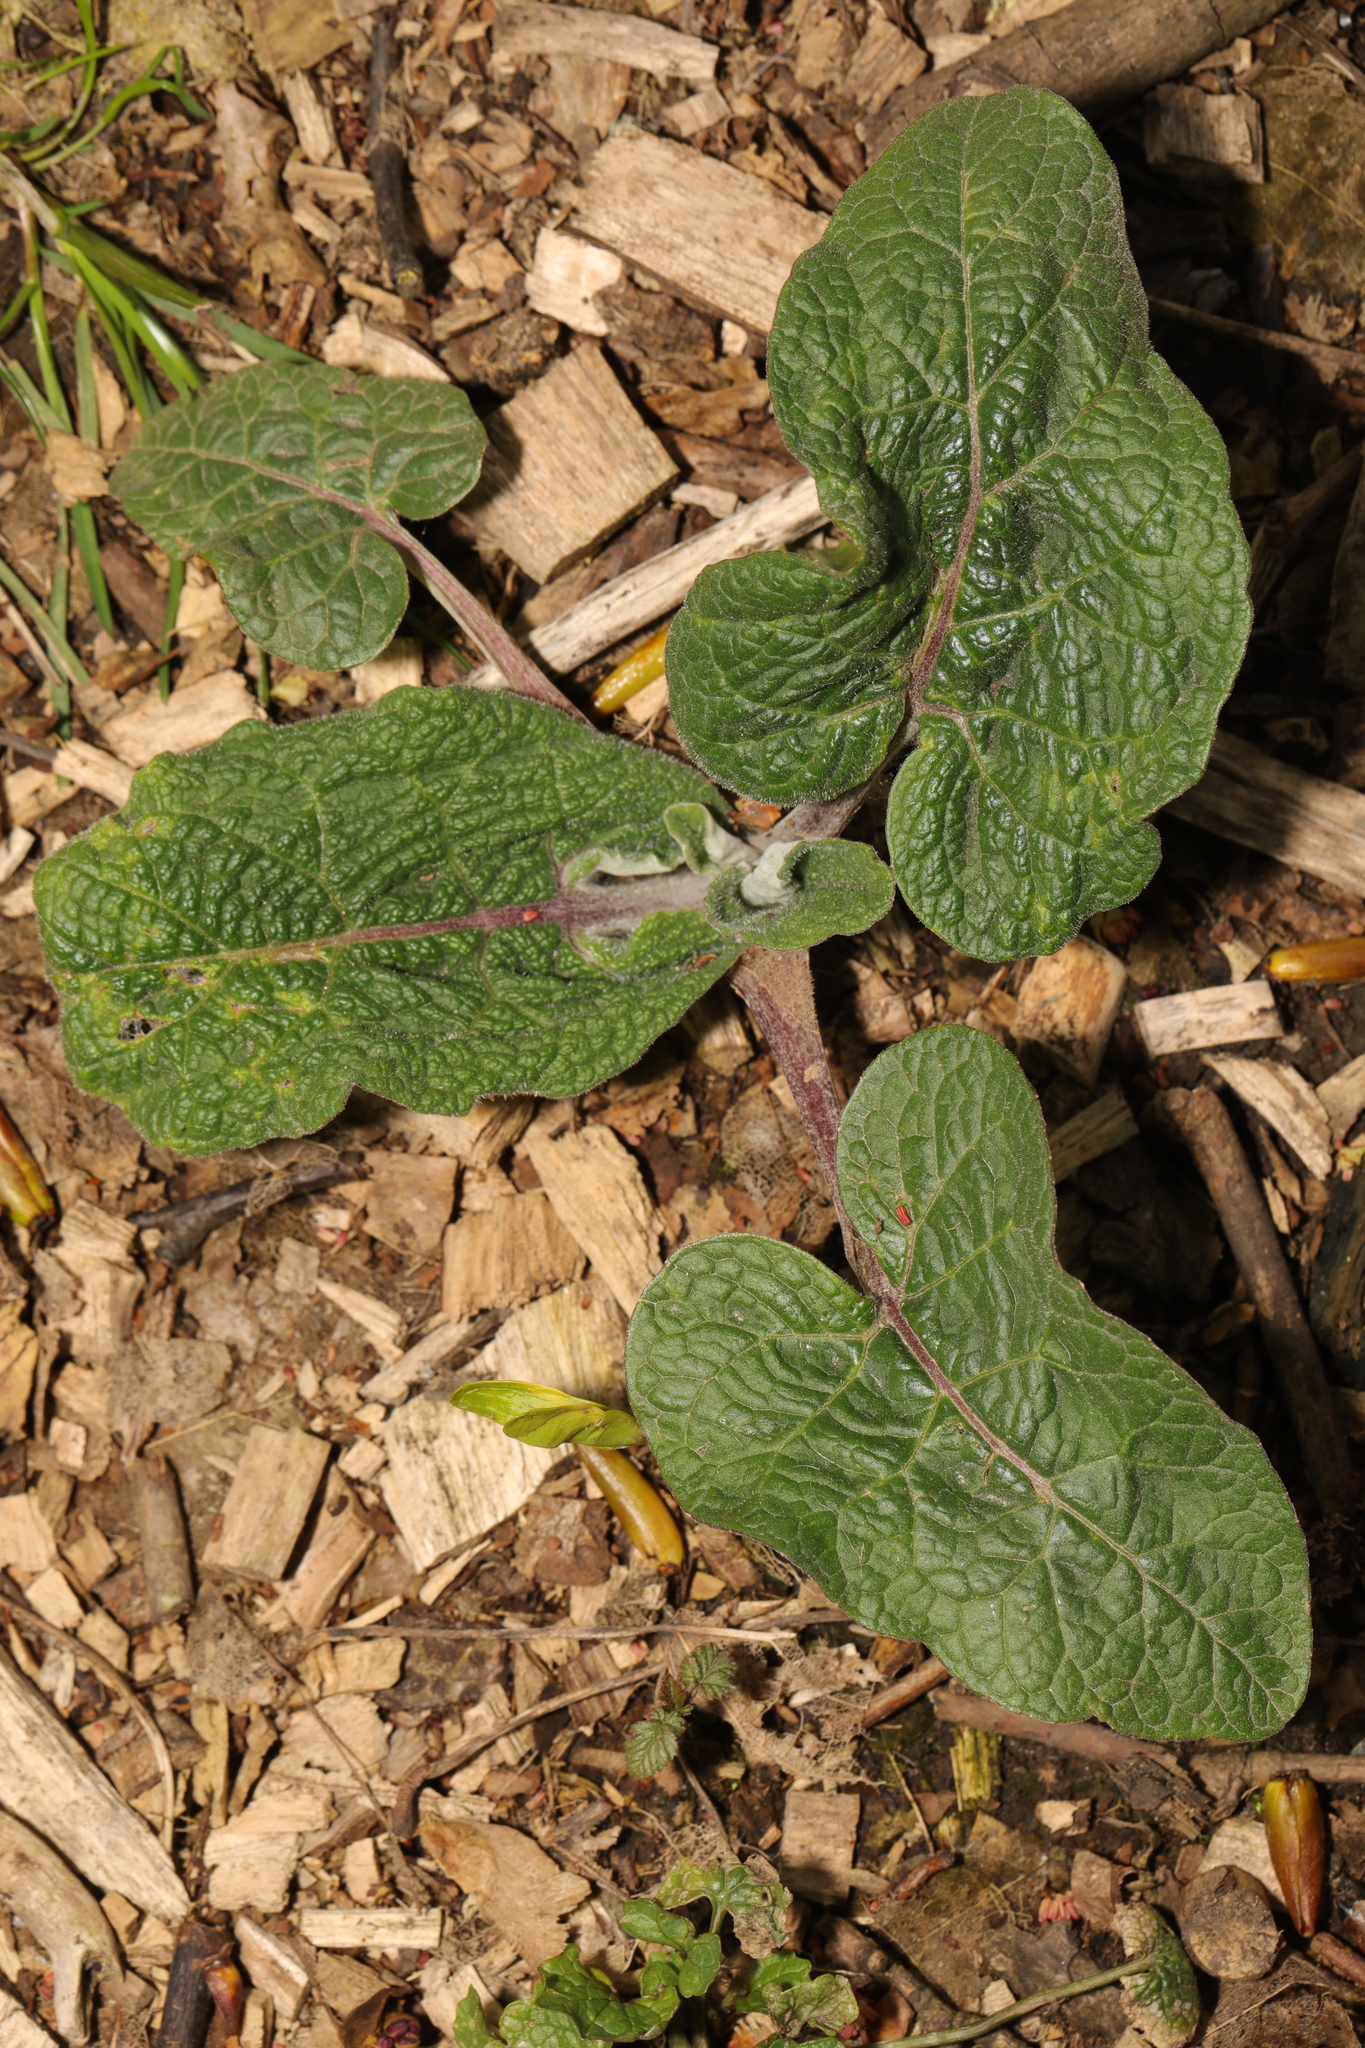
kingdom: Plantae
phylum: Tracheophyta
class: Magnoliopsida
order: Asterales
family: Asteraceae
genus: Arctium
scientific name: Arctium minus
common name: Lesser burdock
